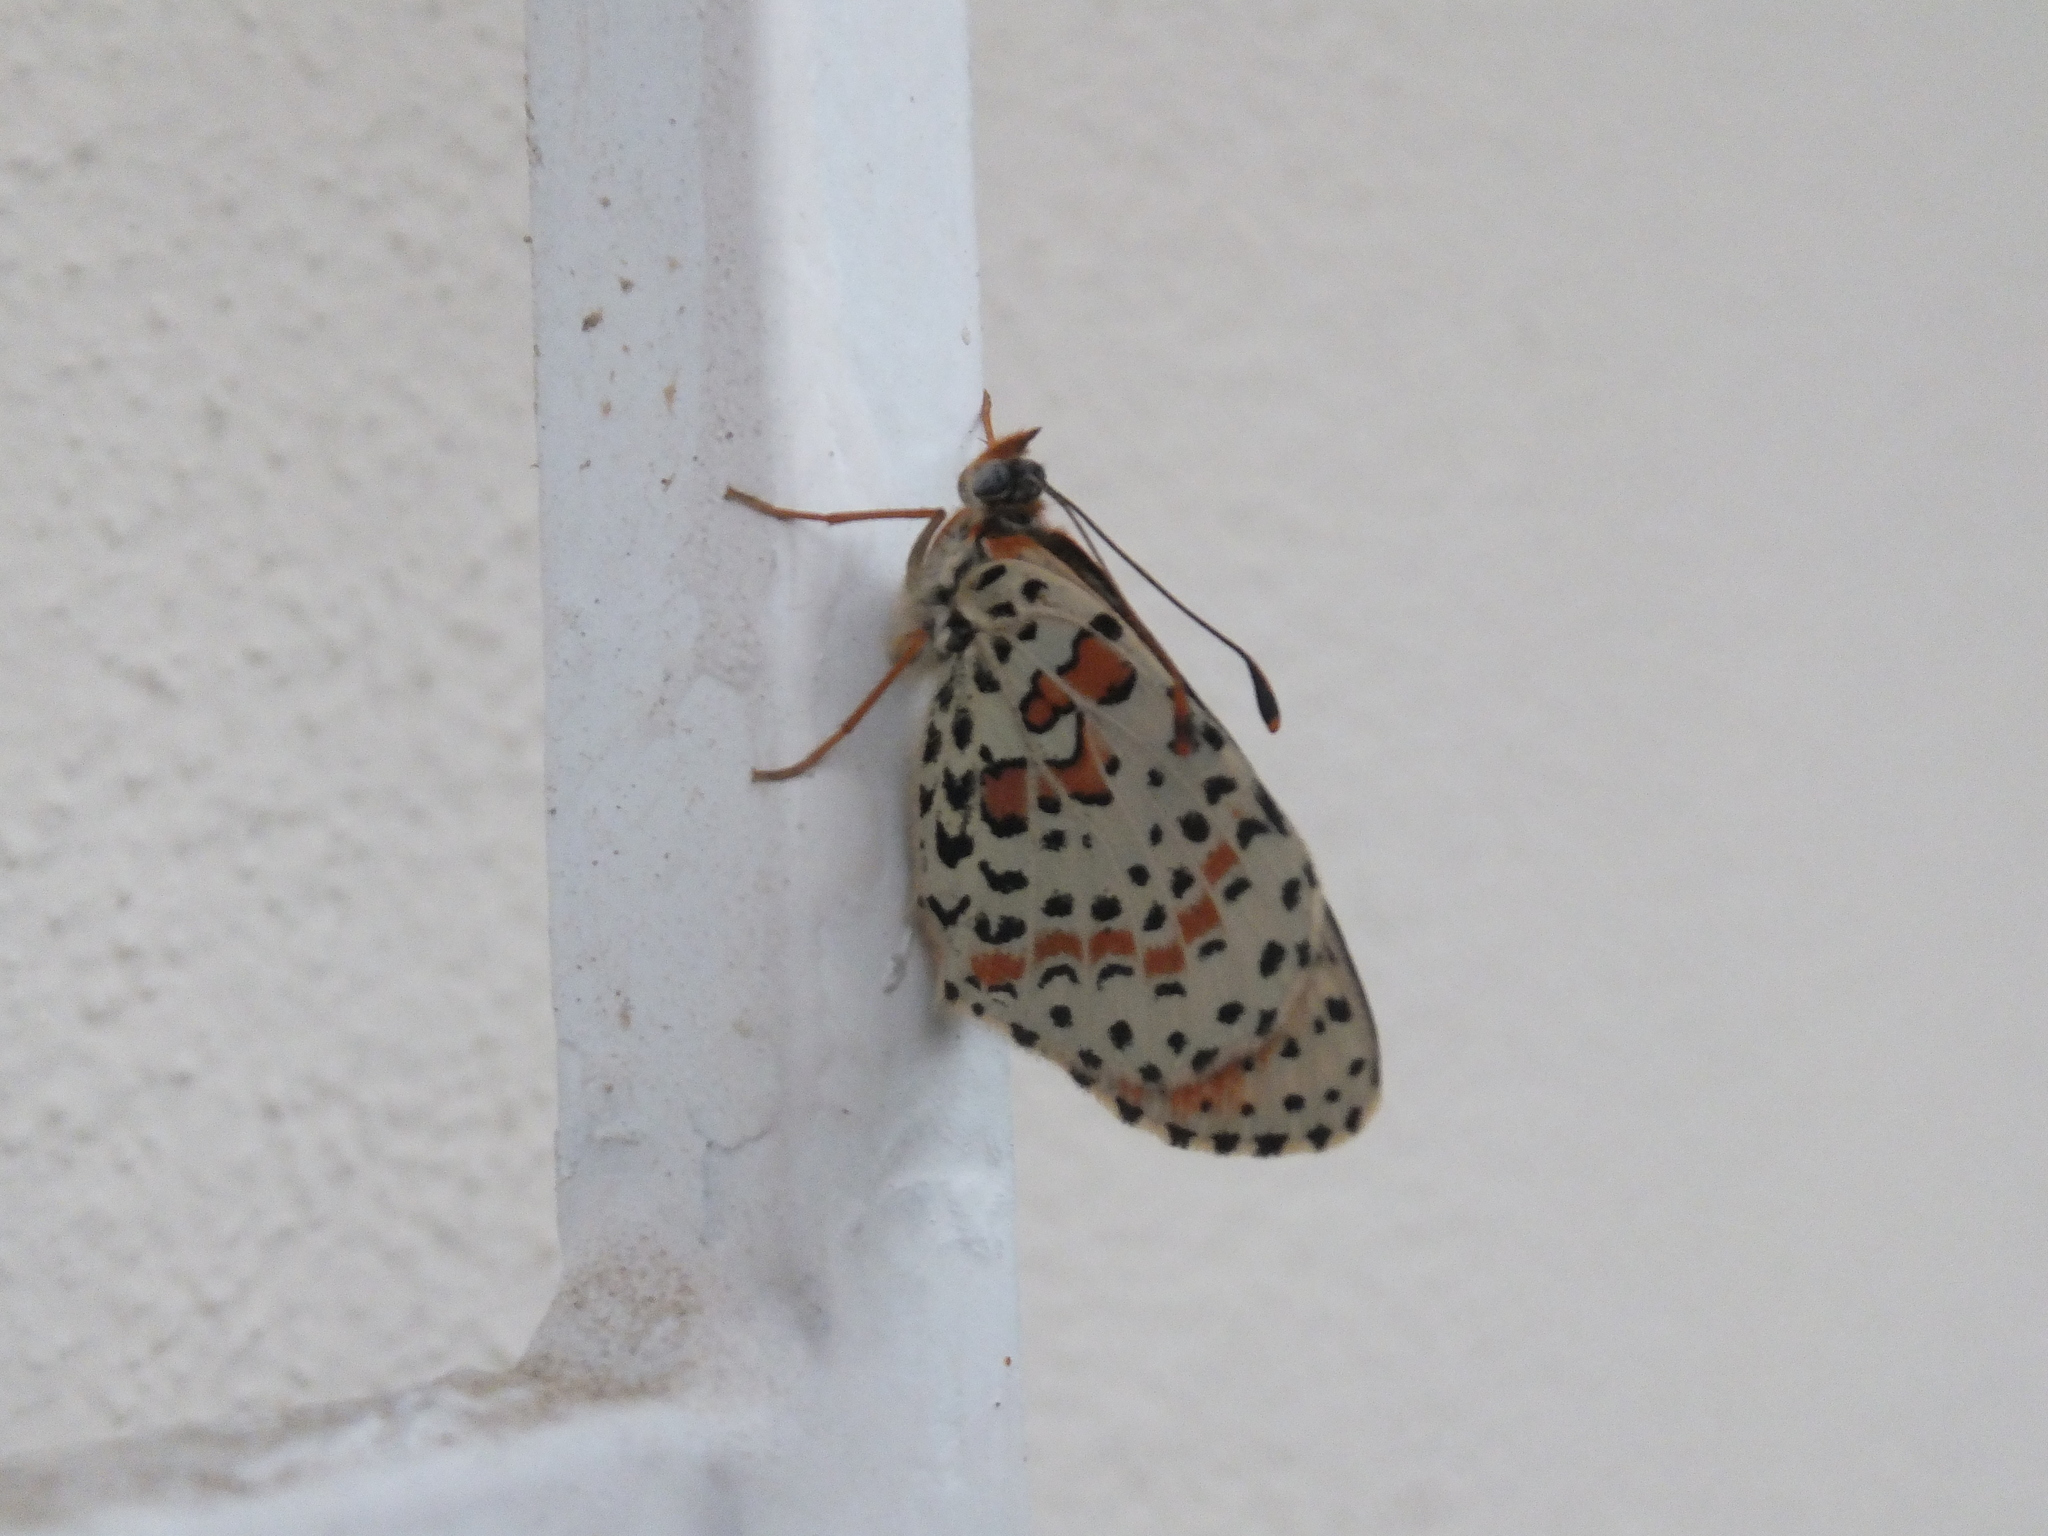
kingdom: Animalia
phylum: Arthropoda
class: Insecta
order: Lepidoptera
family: Nymphalidae
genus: Melitaea
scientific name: Melitaea didyma
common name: Spotted fritillary
